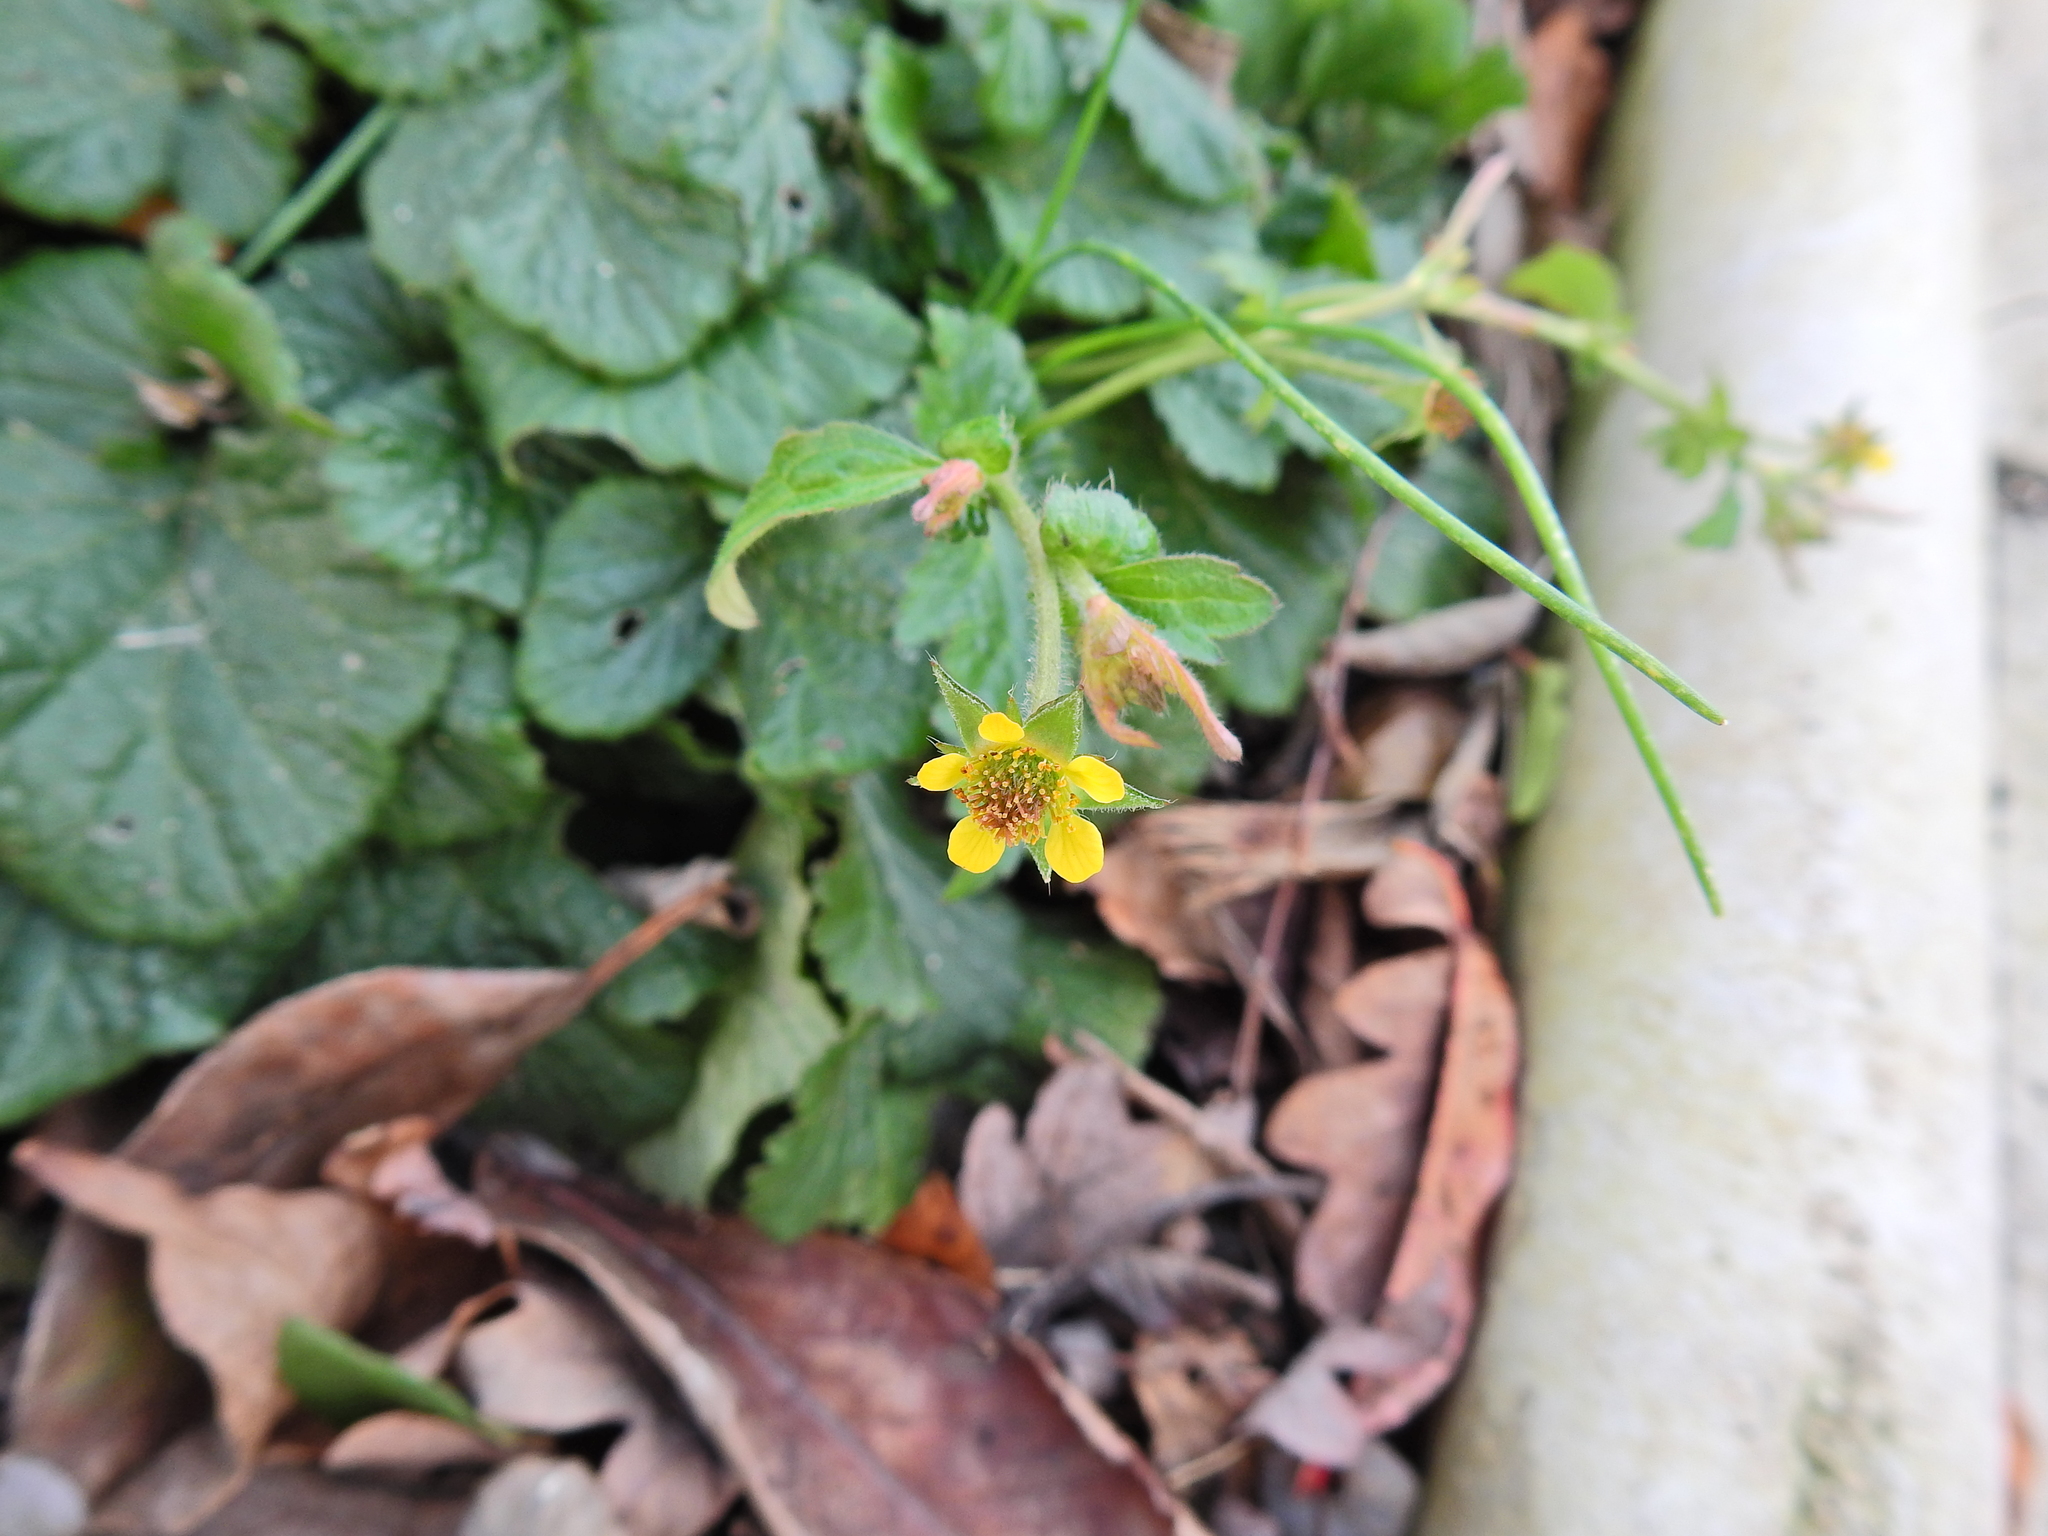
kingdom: Plantae
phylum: Tracheophyta
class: Magnoliopsida
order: Rosales
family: Rosaceae
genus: Geum
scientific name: Geum urbanum
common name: Wood avens
